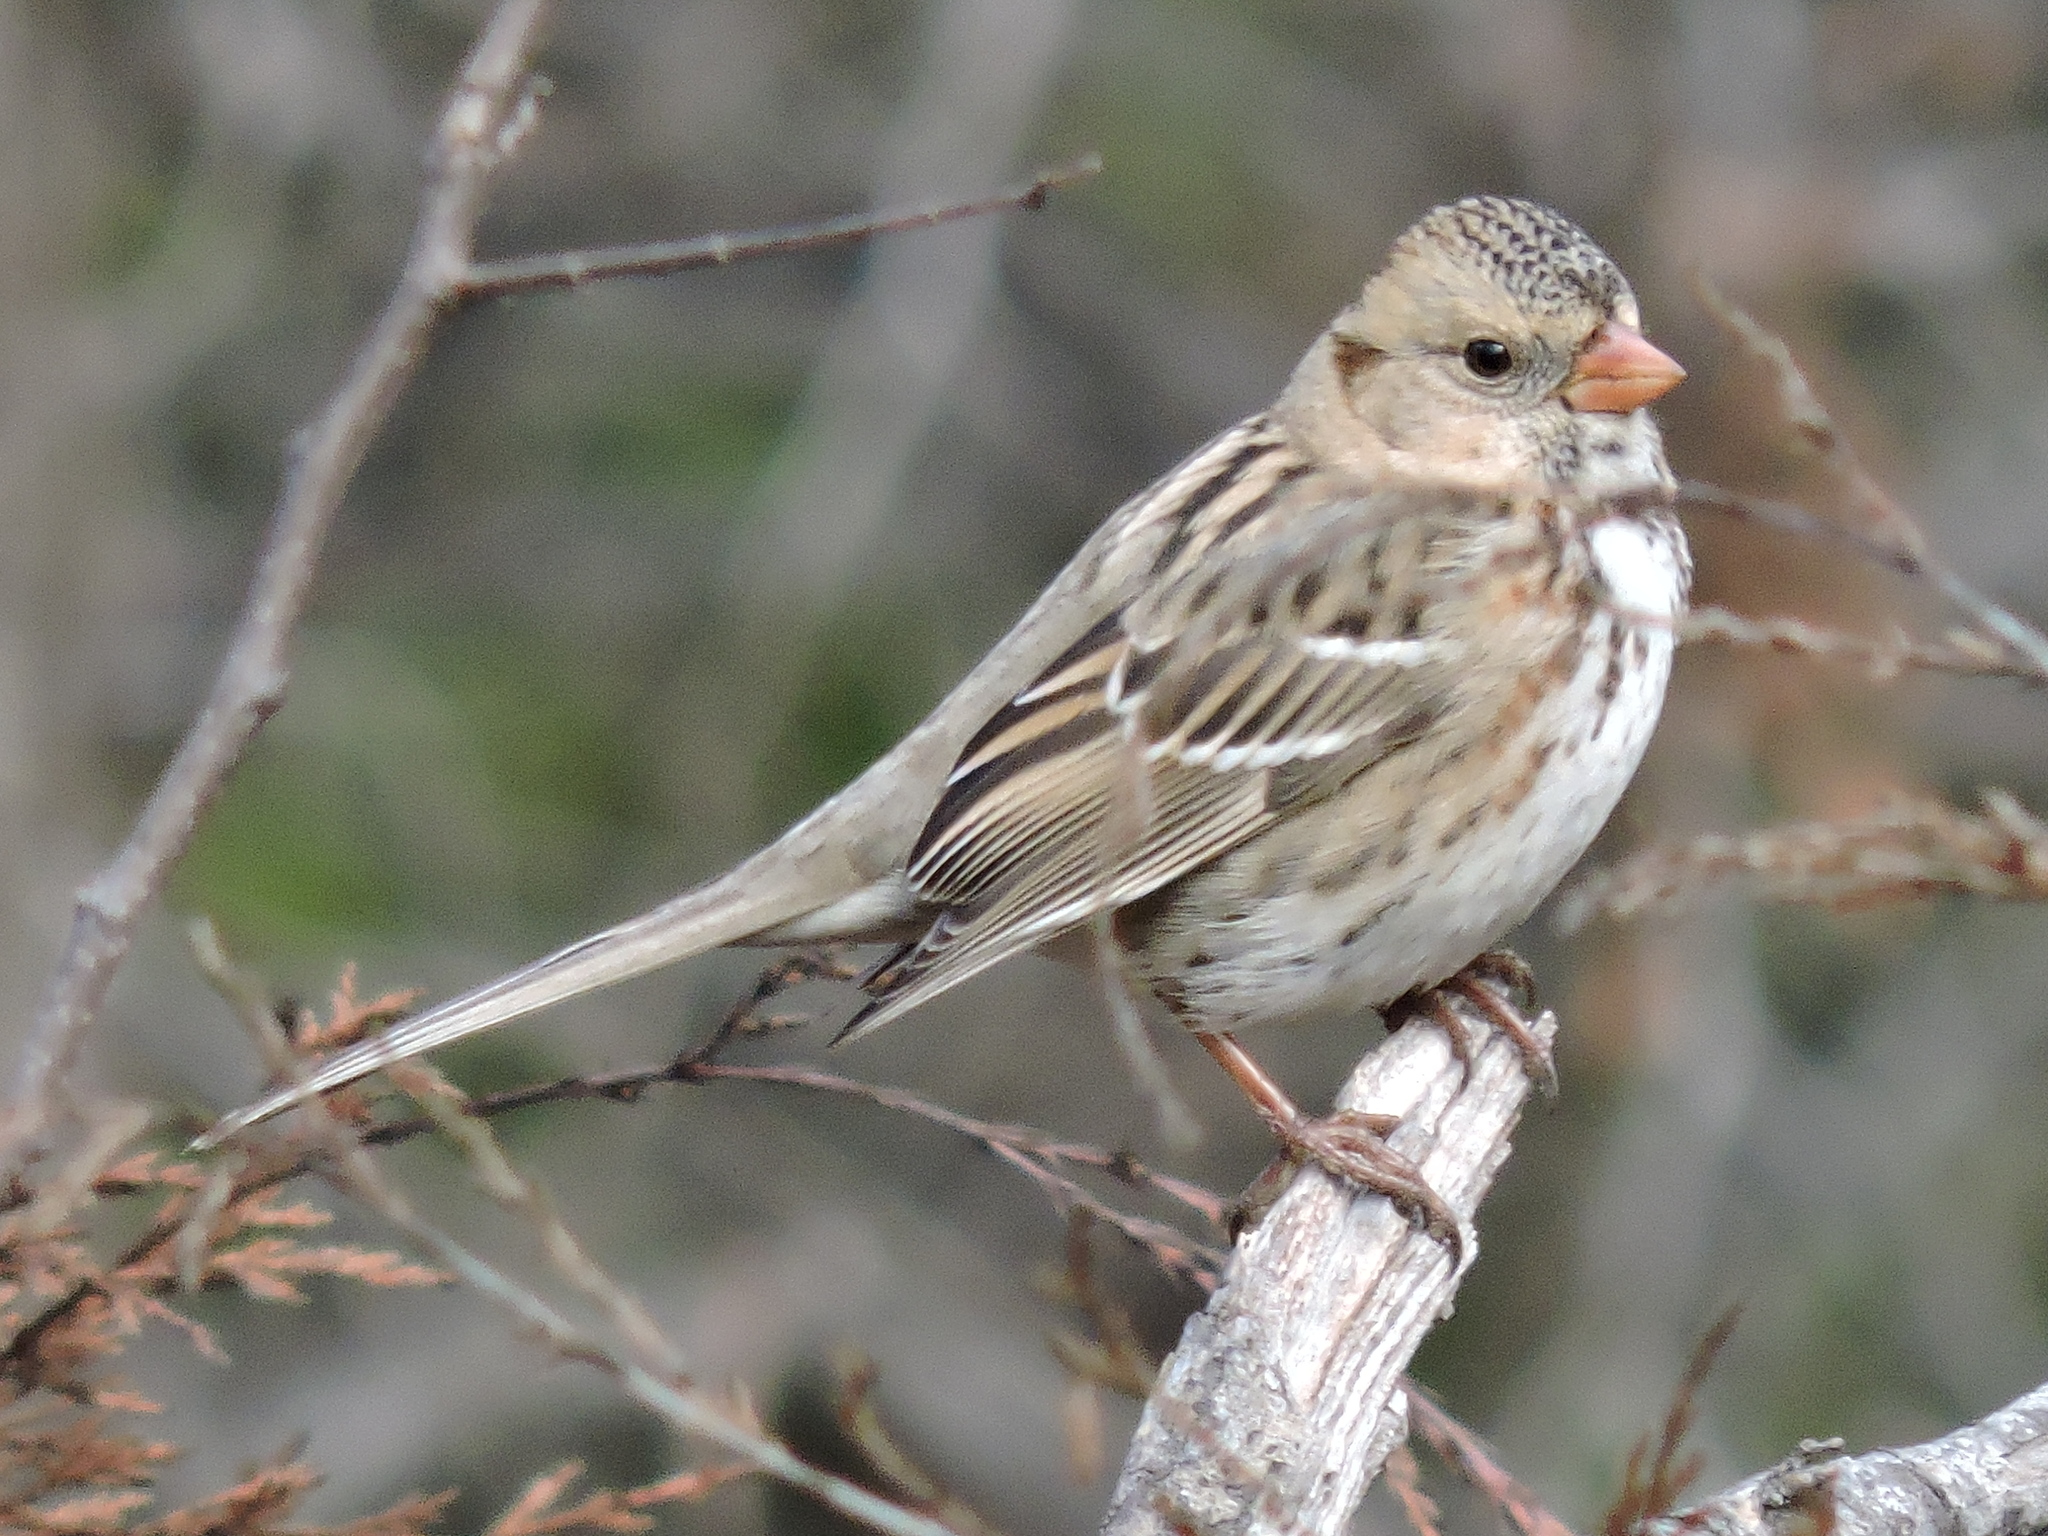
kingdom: Animalia
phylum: Chordata
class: Aves
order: Passeriformes
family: Passerellidae
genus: Zonotrichia
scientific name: Zonotrichia querula
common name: Harris's sparrow
